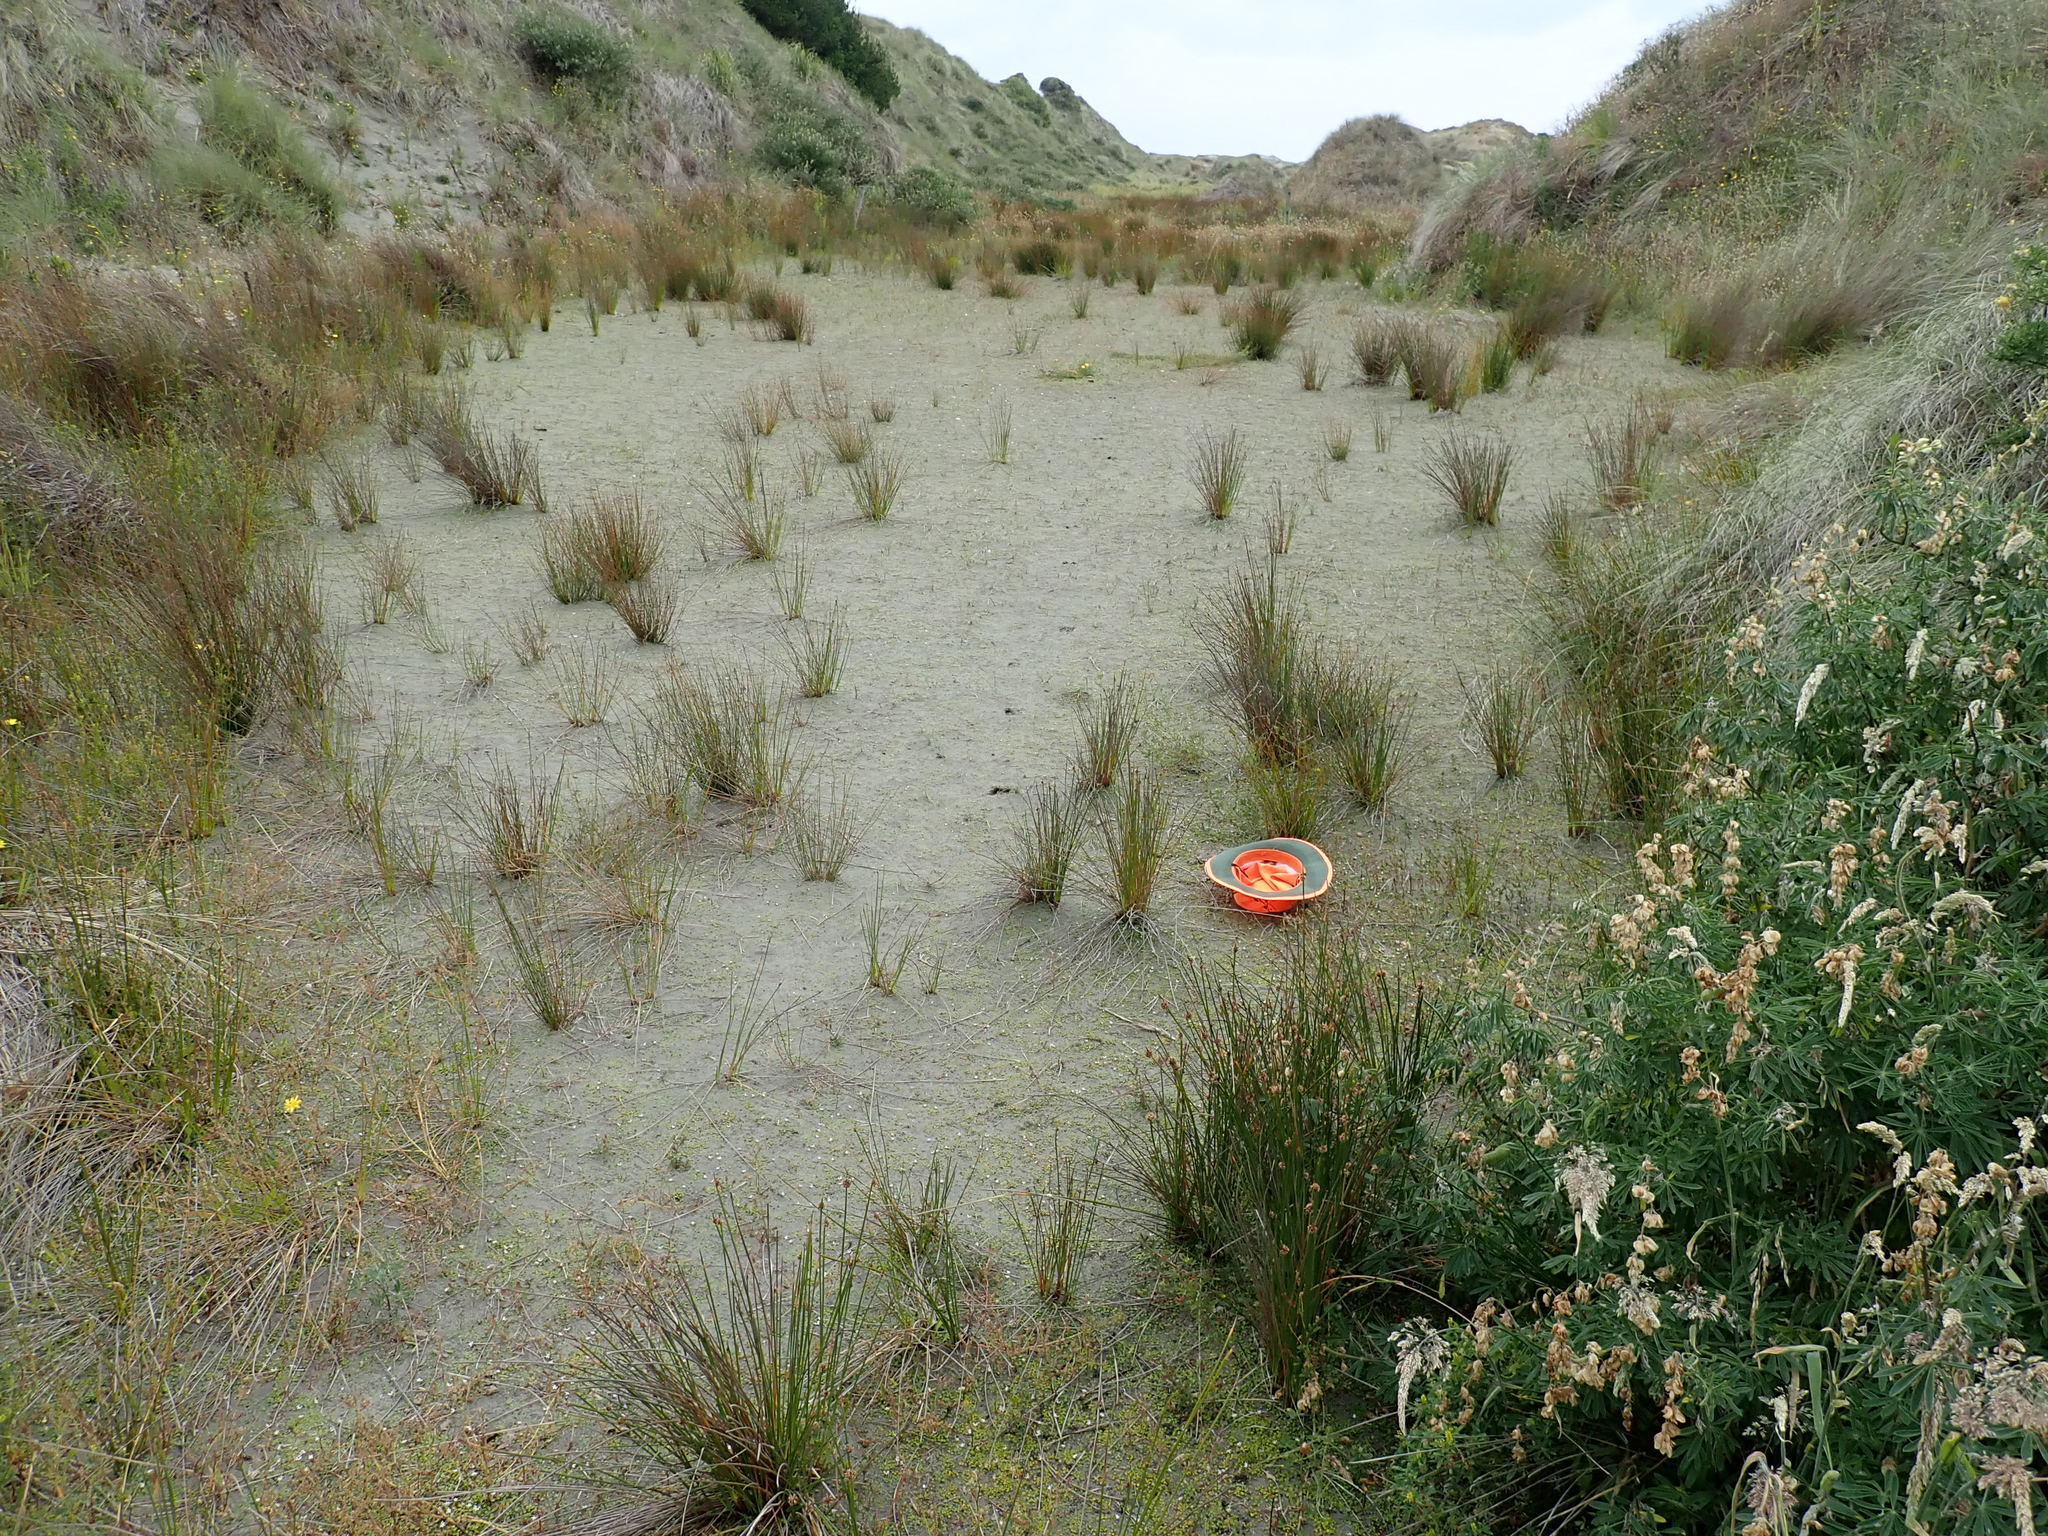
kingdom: Plantae
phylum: Tracheophyta
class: Magnoliopsida
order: Asterales
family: Goodeniaceae
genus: Goodenia
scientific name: Goodenia heenanii
